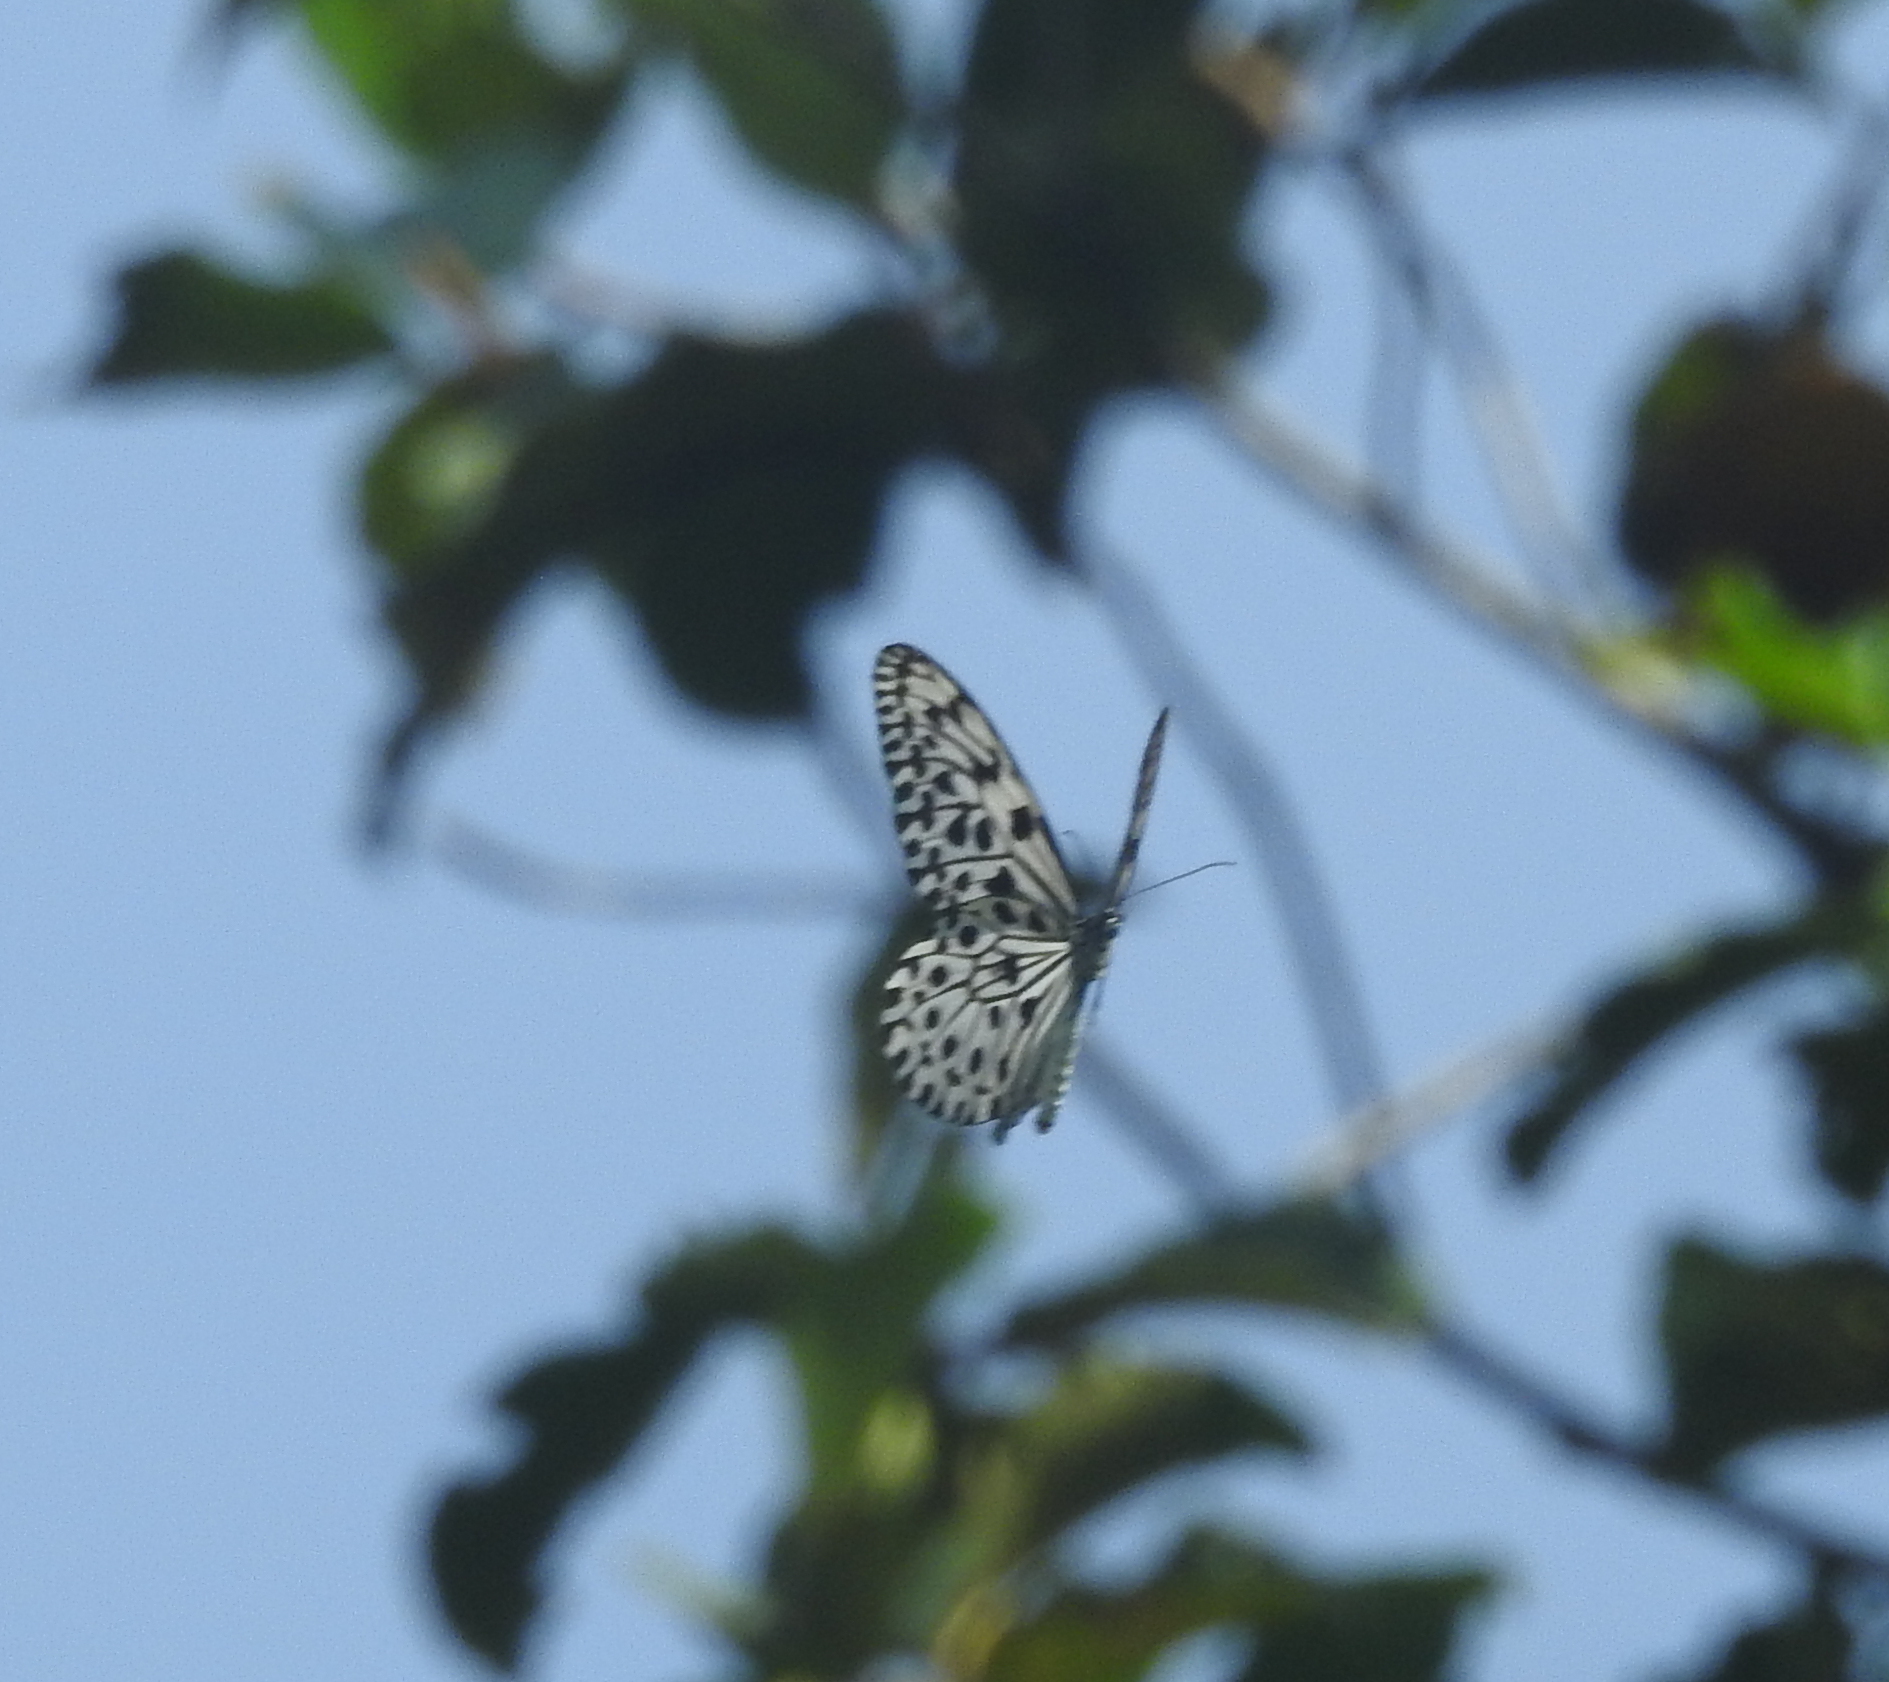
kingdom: Animalia
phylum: Arthropoda
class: Insecta
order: Lepidoptera
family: Nymphalidae
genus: Idea
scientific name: Idea malabarica
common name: Malabar tree-nymph
